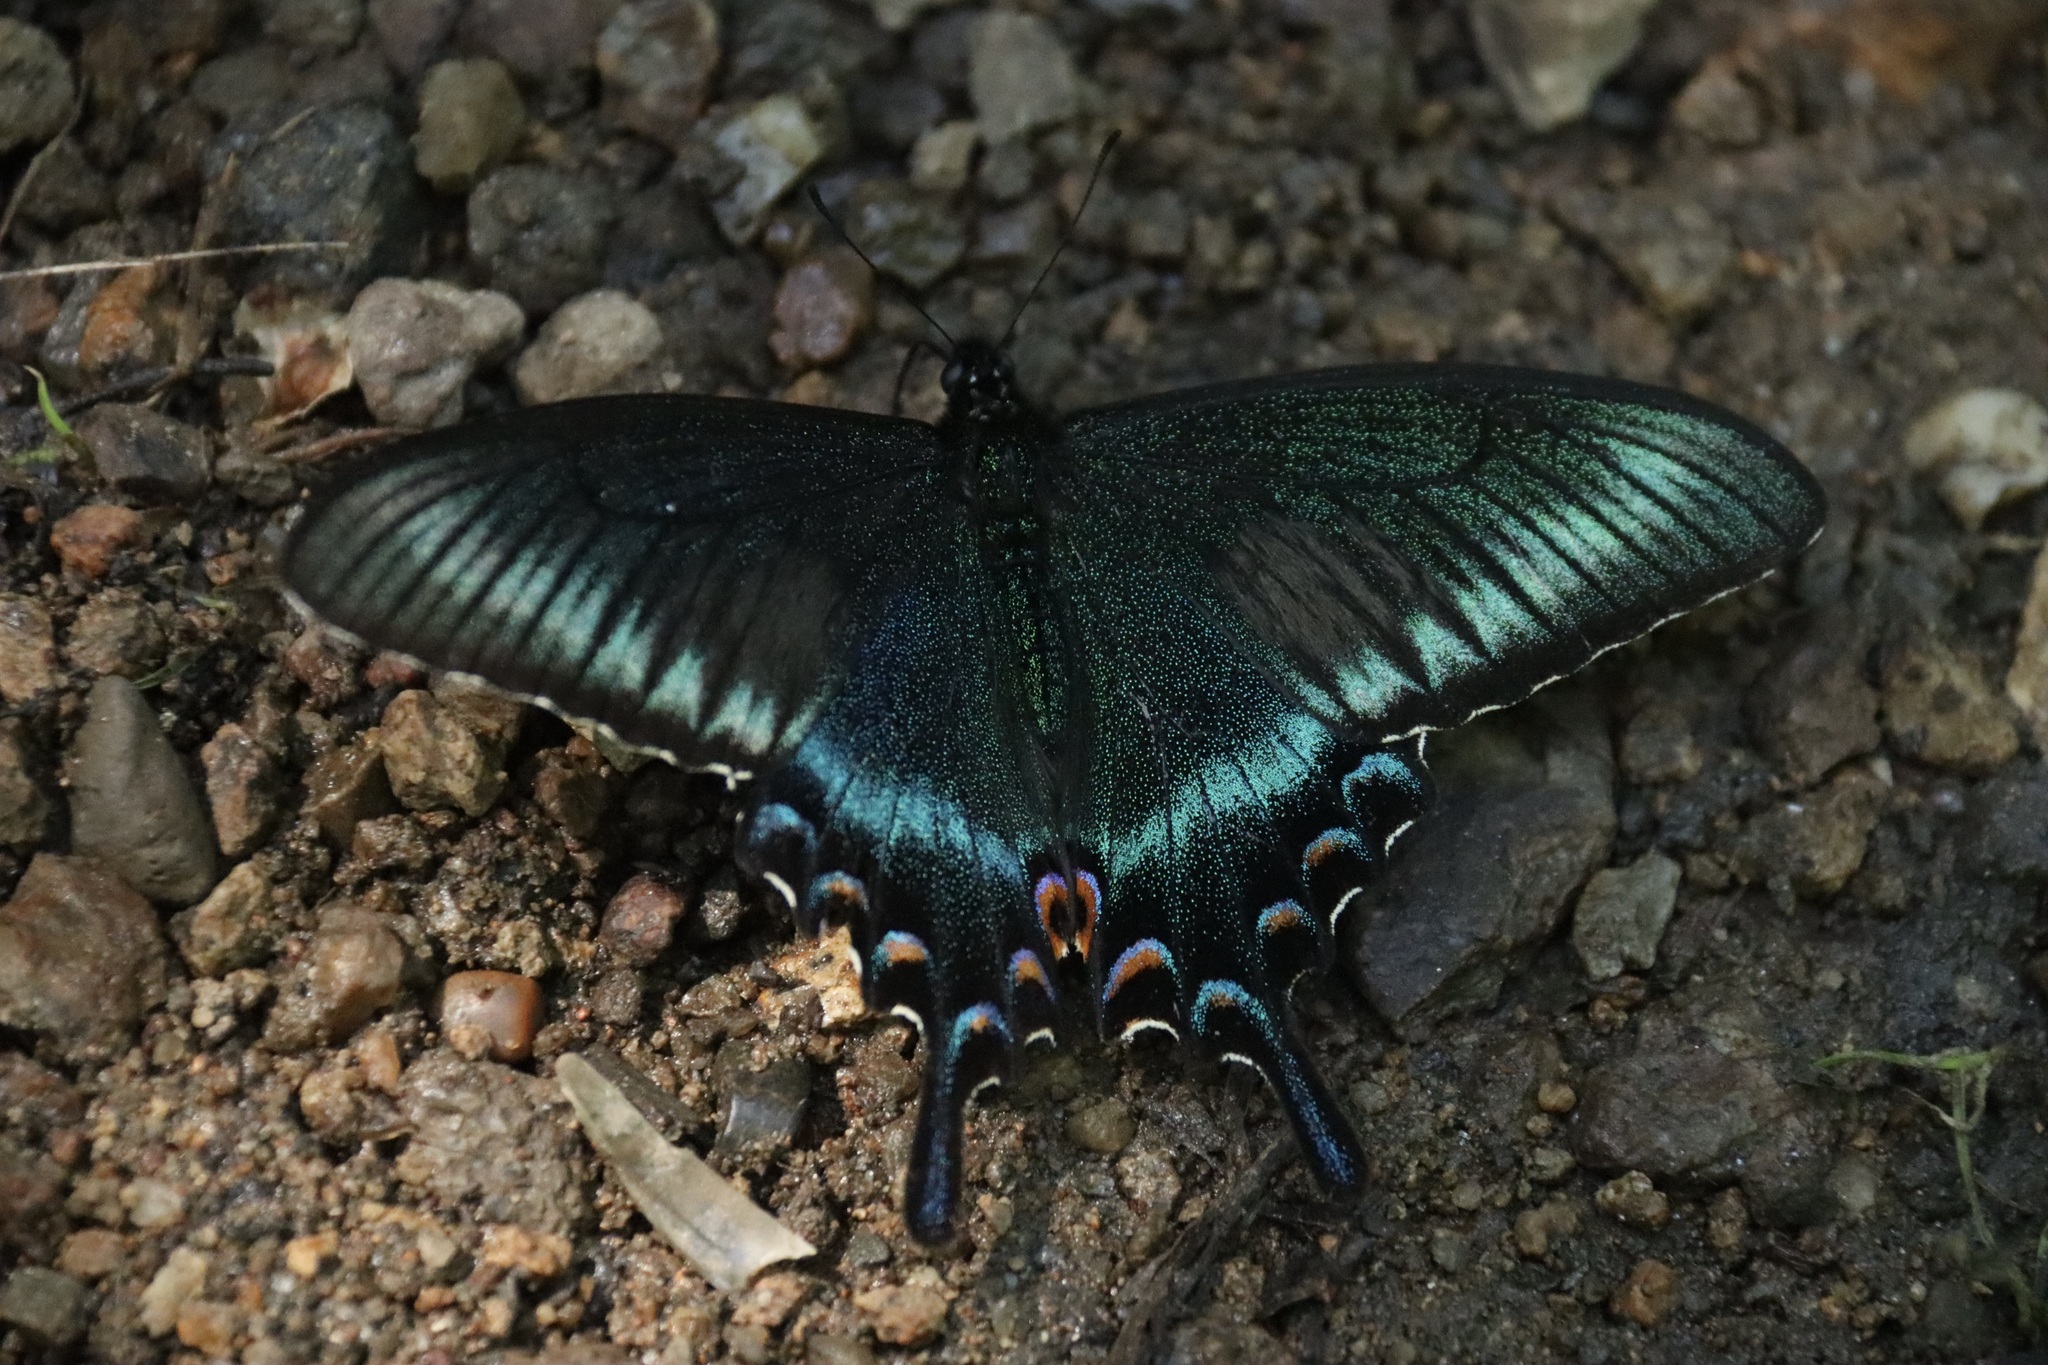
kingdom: Animalia
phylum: Arthropoda
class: Insecta
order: Lepidoptera
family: Papilionidae
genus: Papilio
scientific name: Papilio maackii
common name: Alpine black swallowtail
